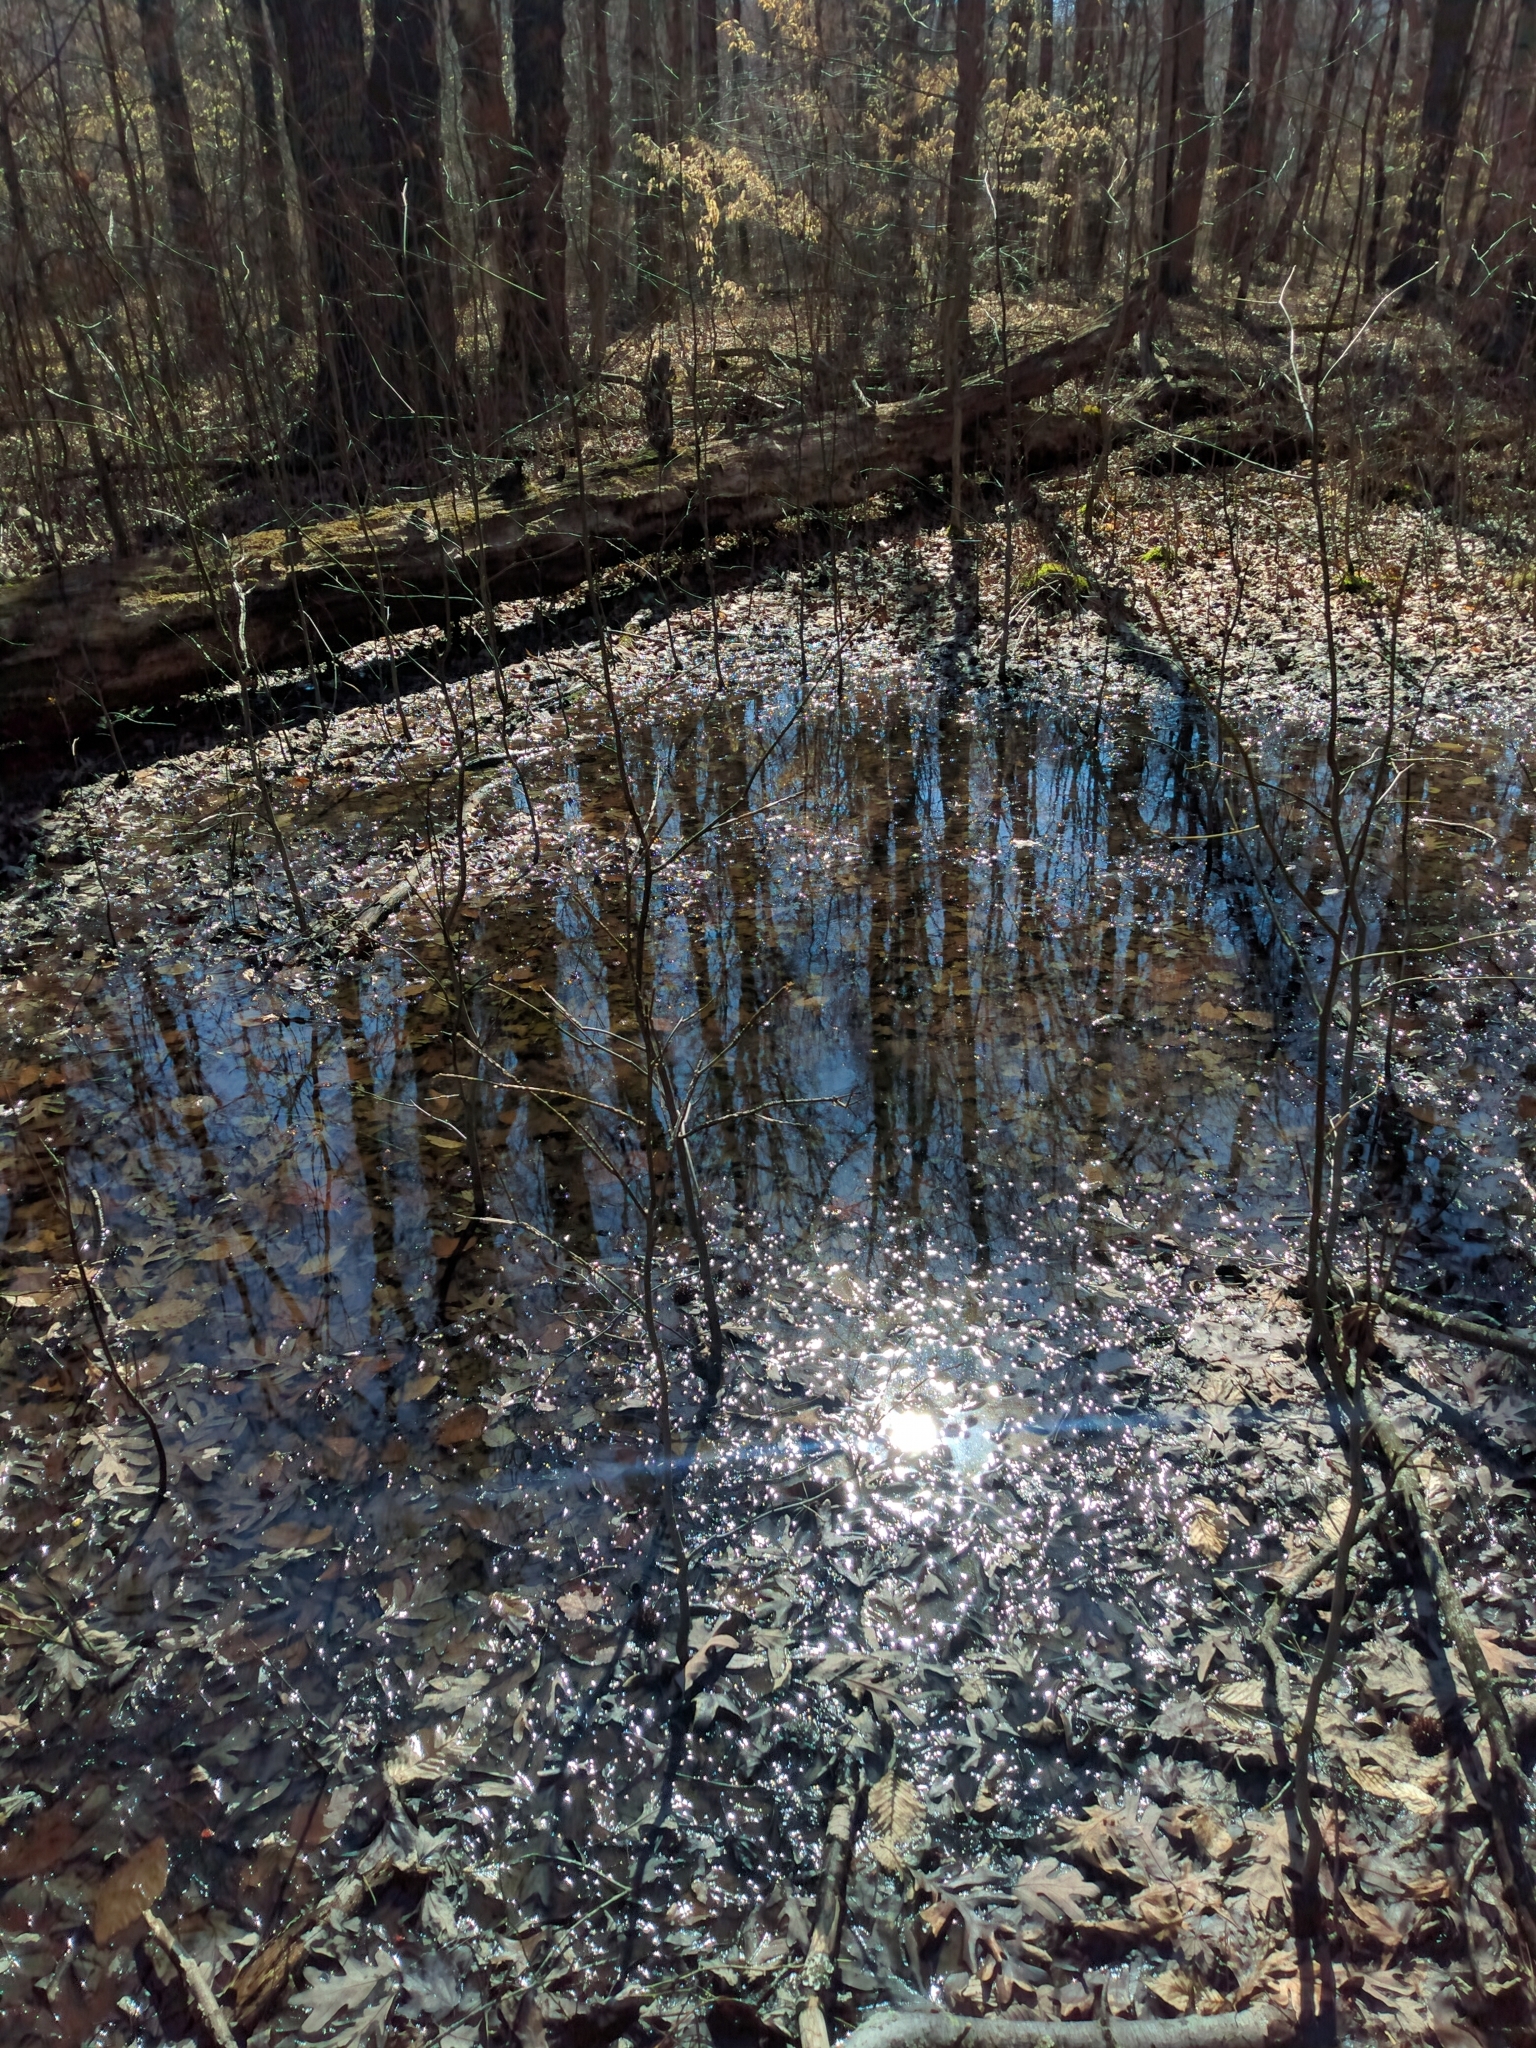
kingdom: Animalia
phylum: Chordata
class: Amphibia
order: Caudata
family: Ambystomatidae
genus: Ambystoma
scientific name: Ambystoma maculatum
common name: Spotted salamander
